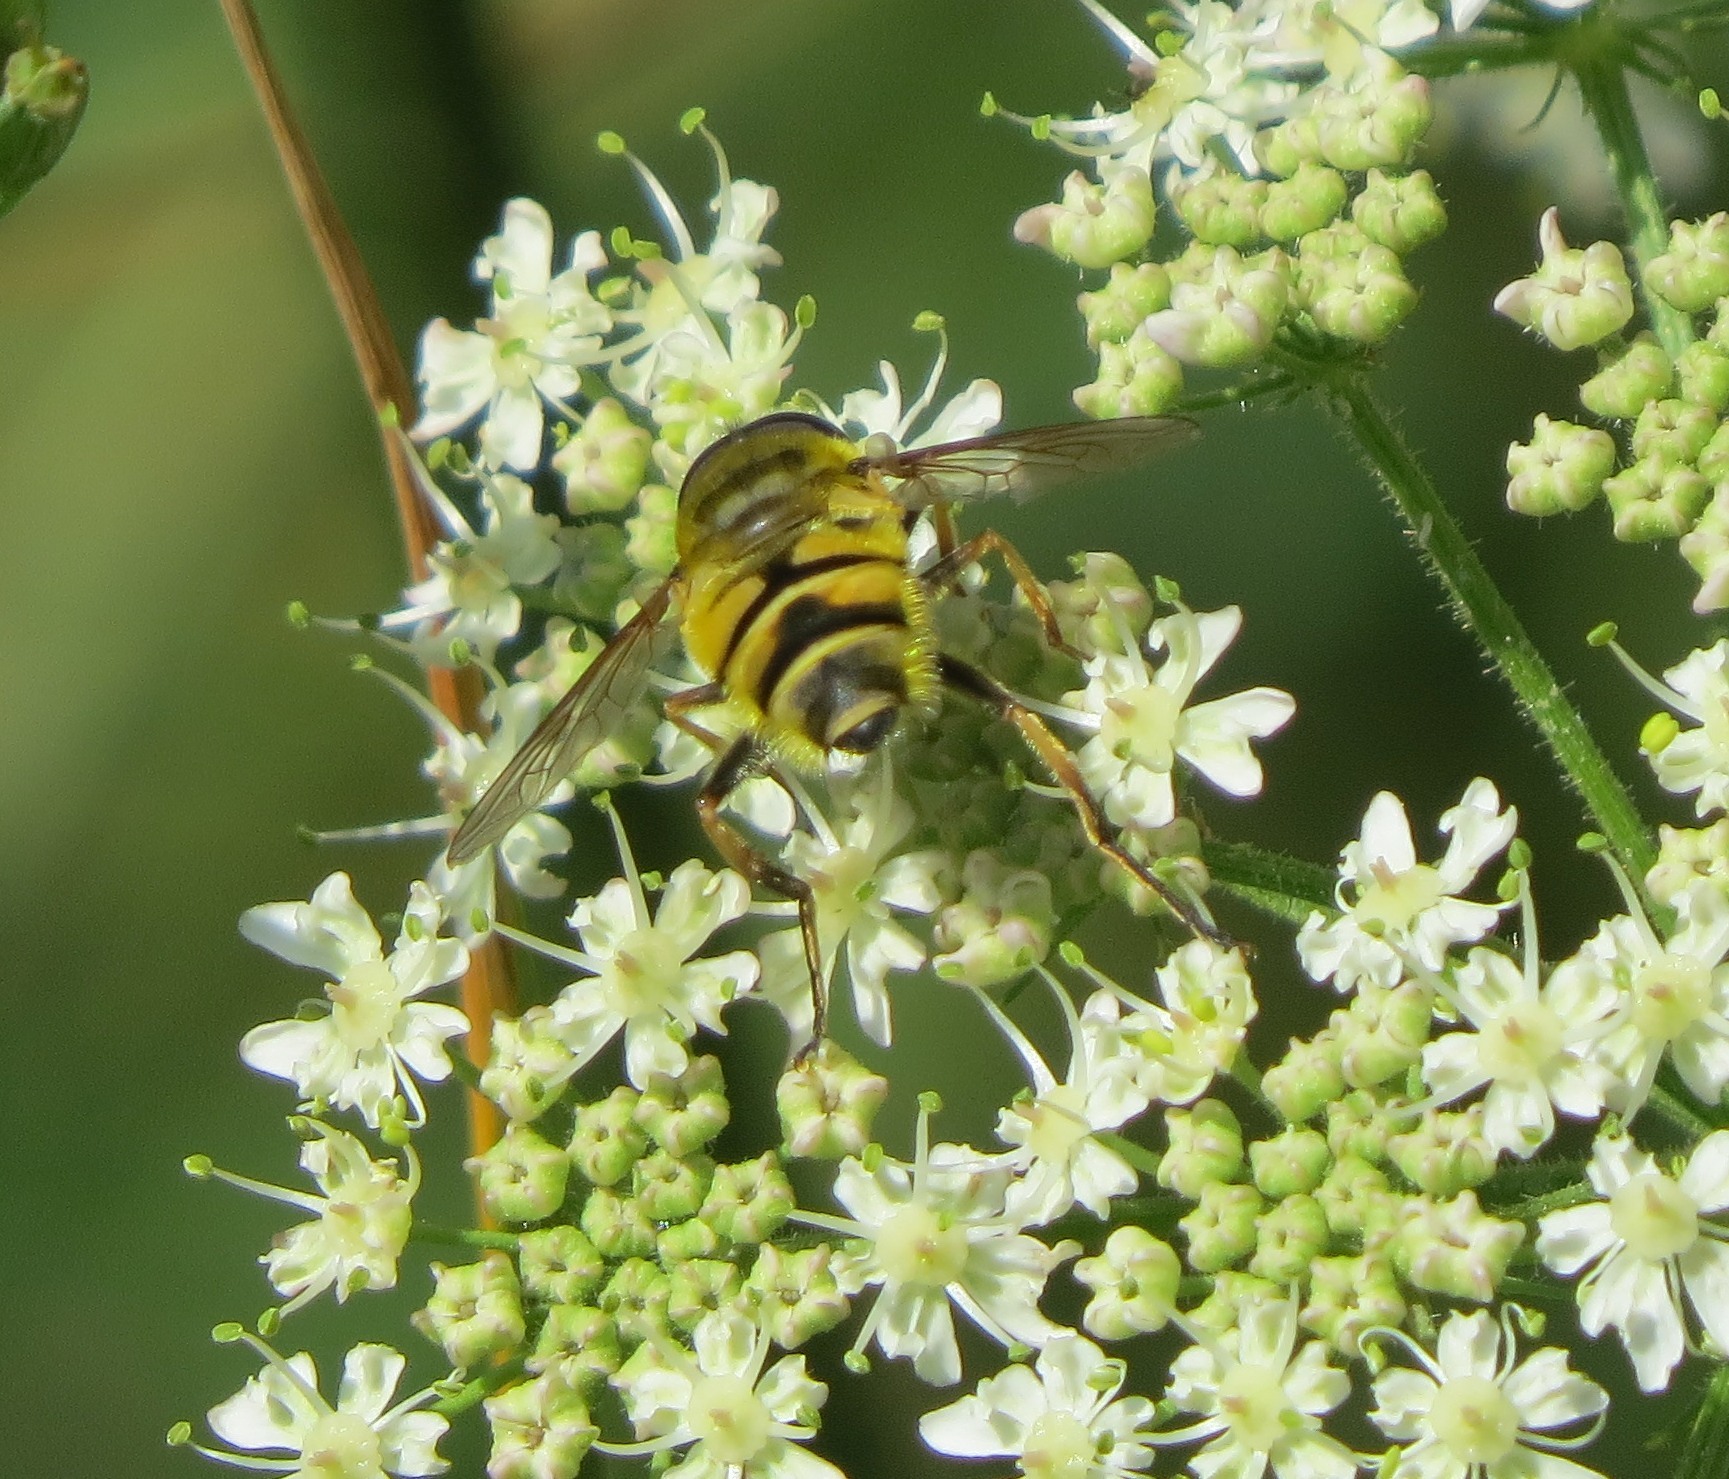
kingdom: Animalia
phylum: Arthropoda
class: Insecta
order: Diptera
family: Syrphidae
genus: Myathropa
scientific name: Myathropa florea
